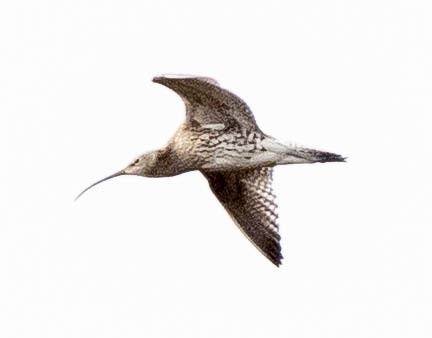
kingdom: Animalia
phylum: Chordata
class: Aves
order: Charadriiformes
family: Scolopacidae
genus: Numenius
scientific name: Numenius arquata
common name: Eurasian curlew
